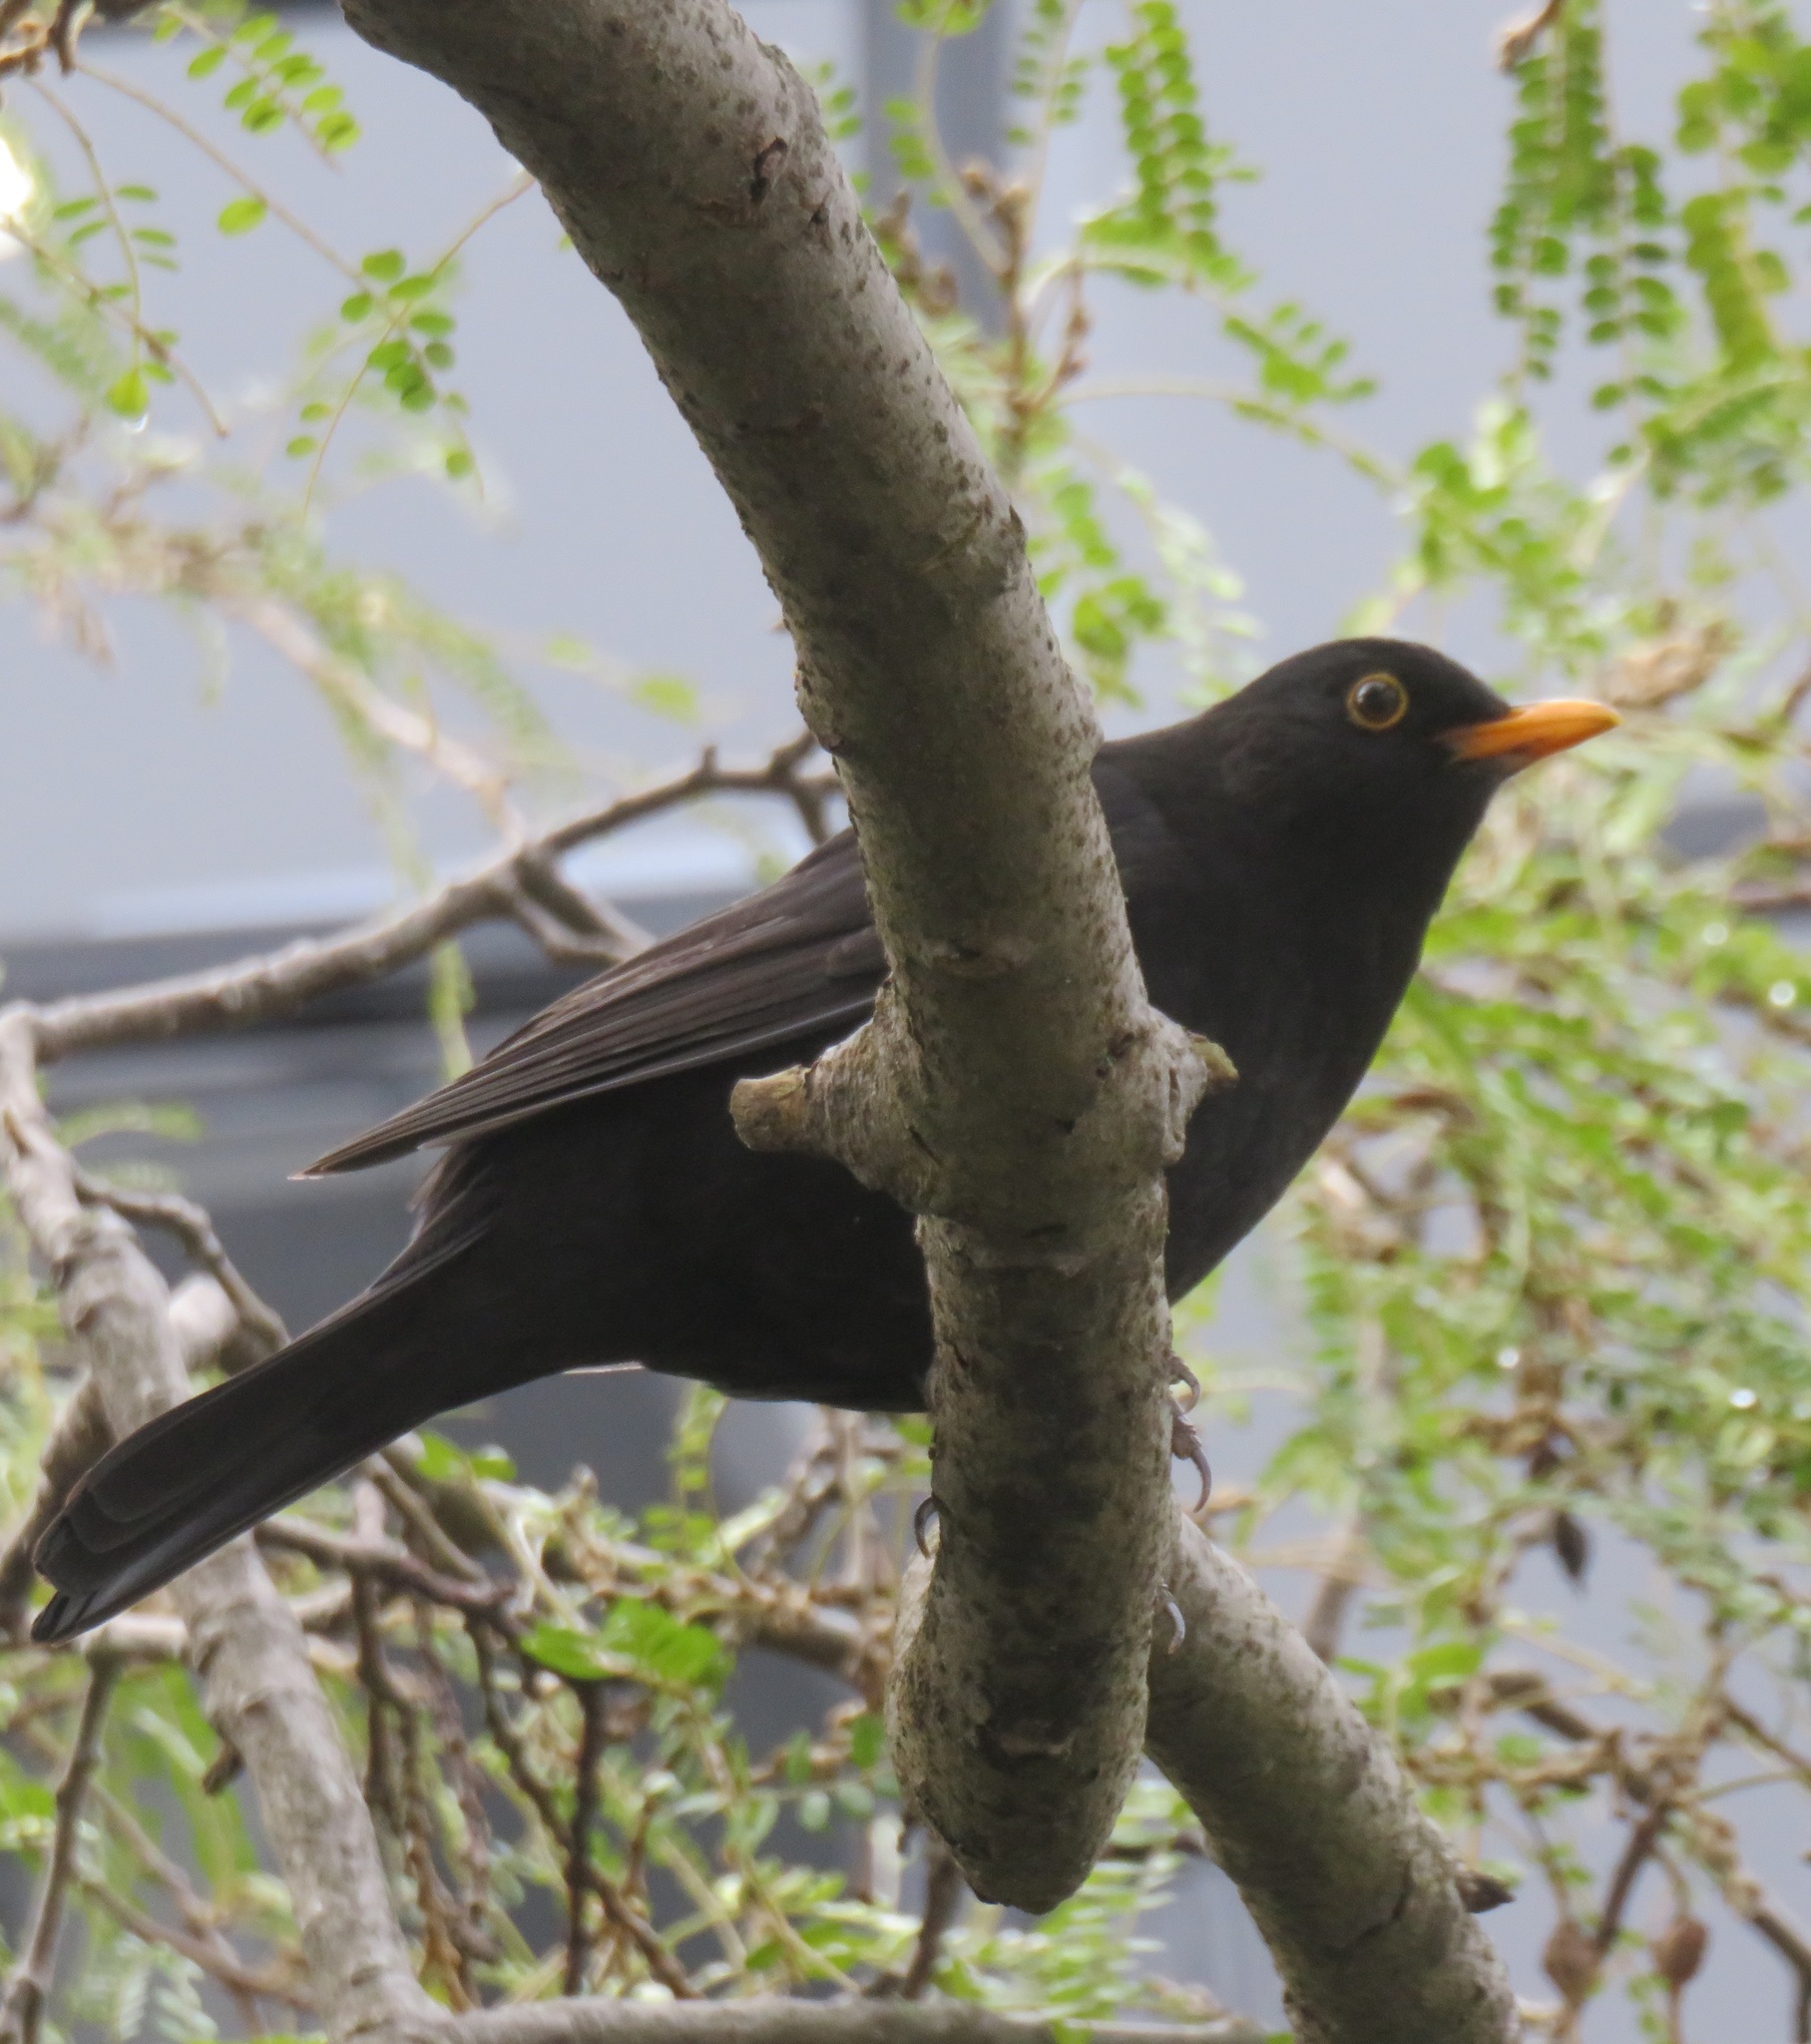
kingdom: Animalia
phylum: Chordata
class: Aves
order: Passeriformes
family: Turdidae
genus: Turdus
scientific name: Turdus merula
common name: Common blackbird
